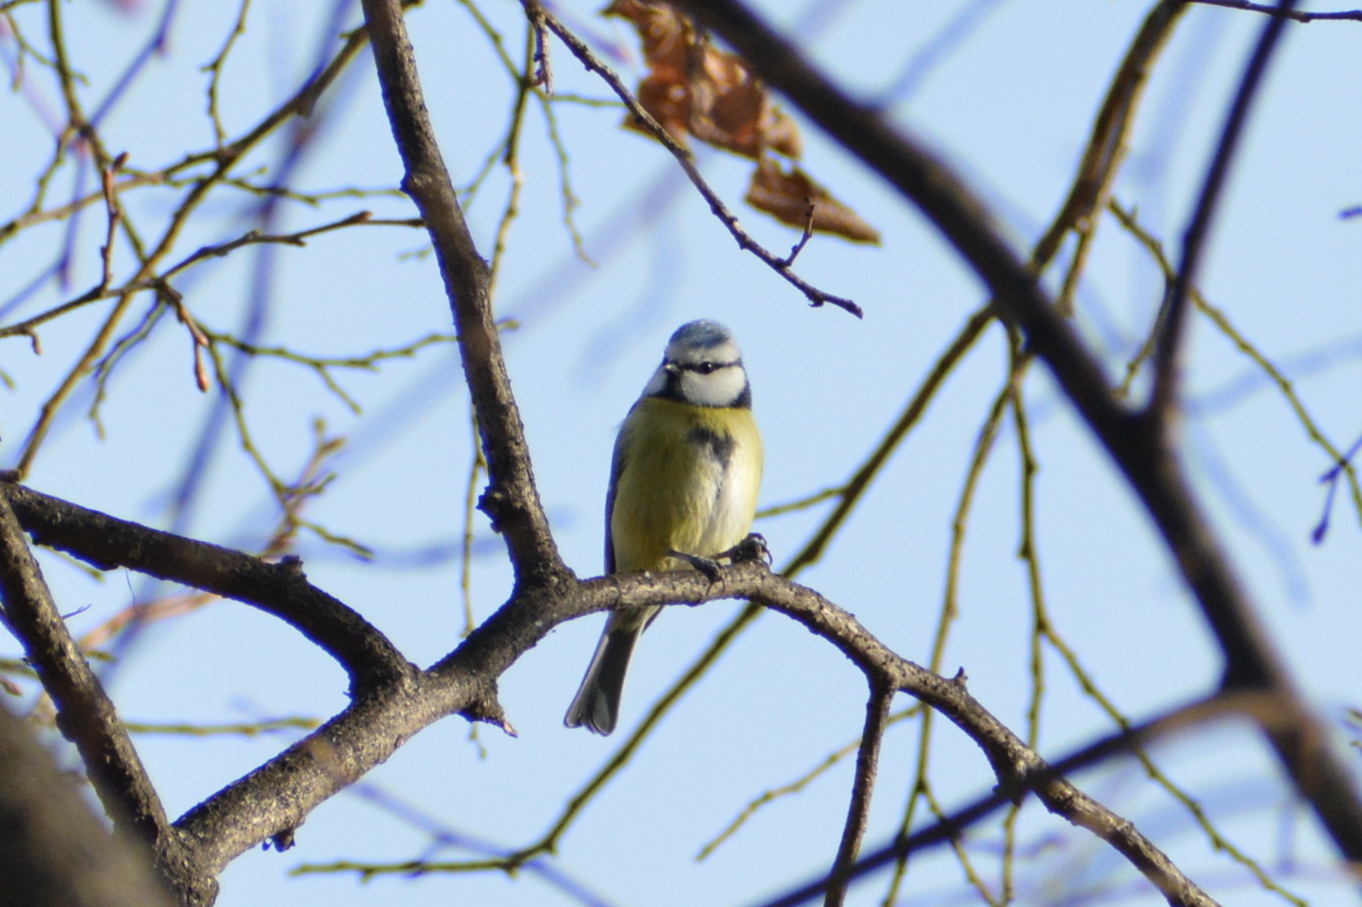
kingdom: Animalia
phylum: Chordata
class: Aves
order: Passeriformes
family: Paridae
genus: Cyanistes
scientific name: Cyanistes caeruleus
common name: Eurasian blue tit
